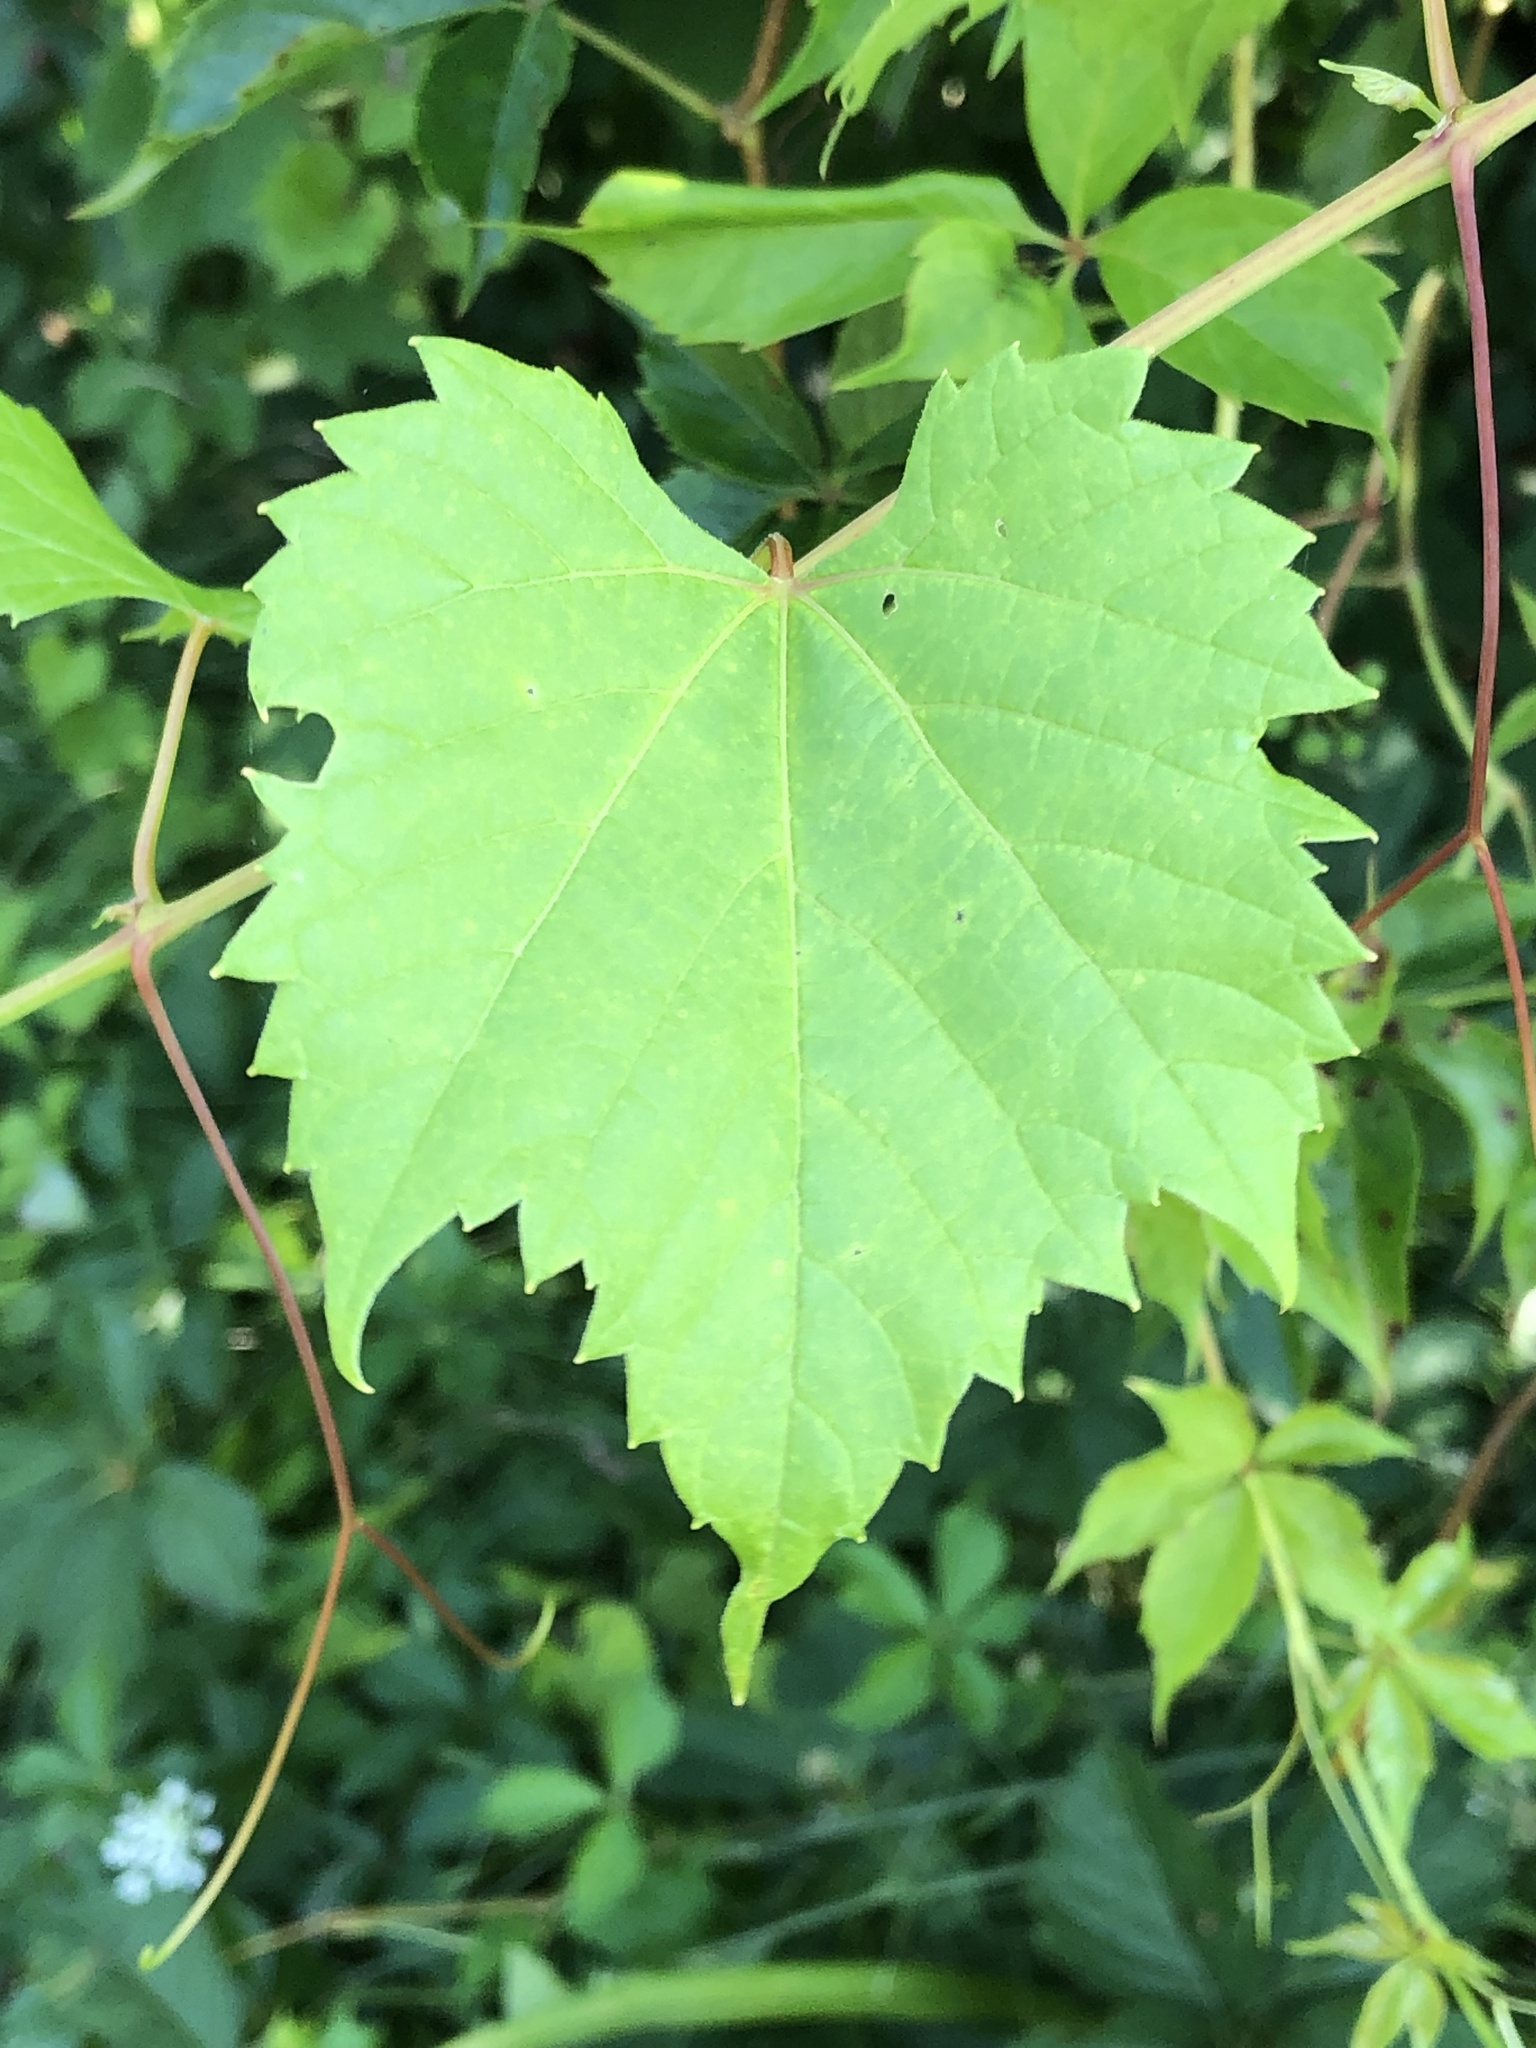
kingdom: Plantae
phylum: Tracheophyta
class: Magnoliopsida
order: Vitales
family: Vitaceae
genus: Vitis
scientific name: Vitis riparia
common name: Frost grape
